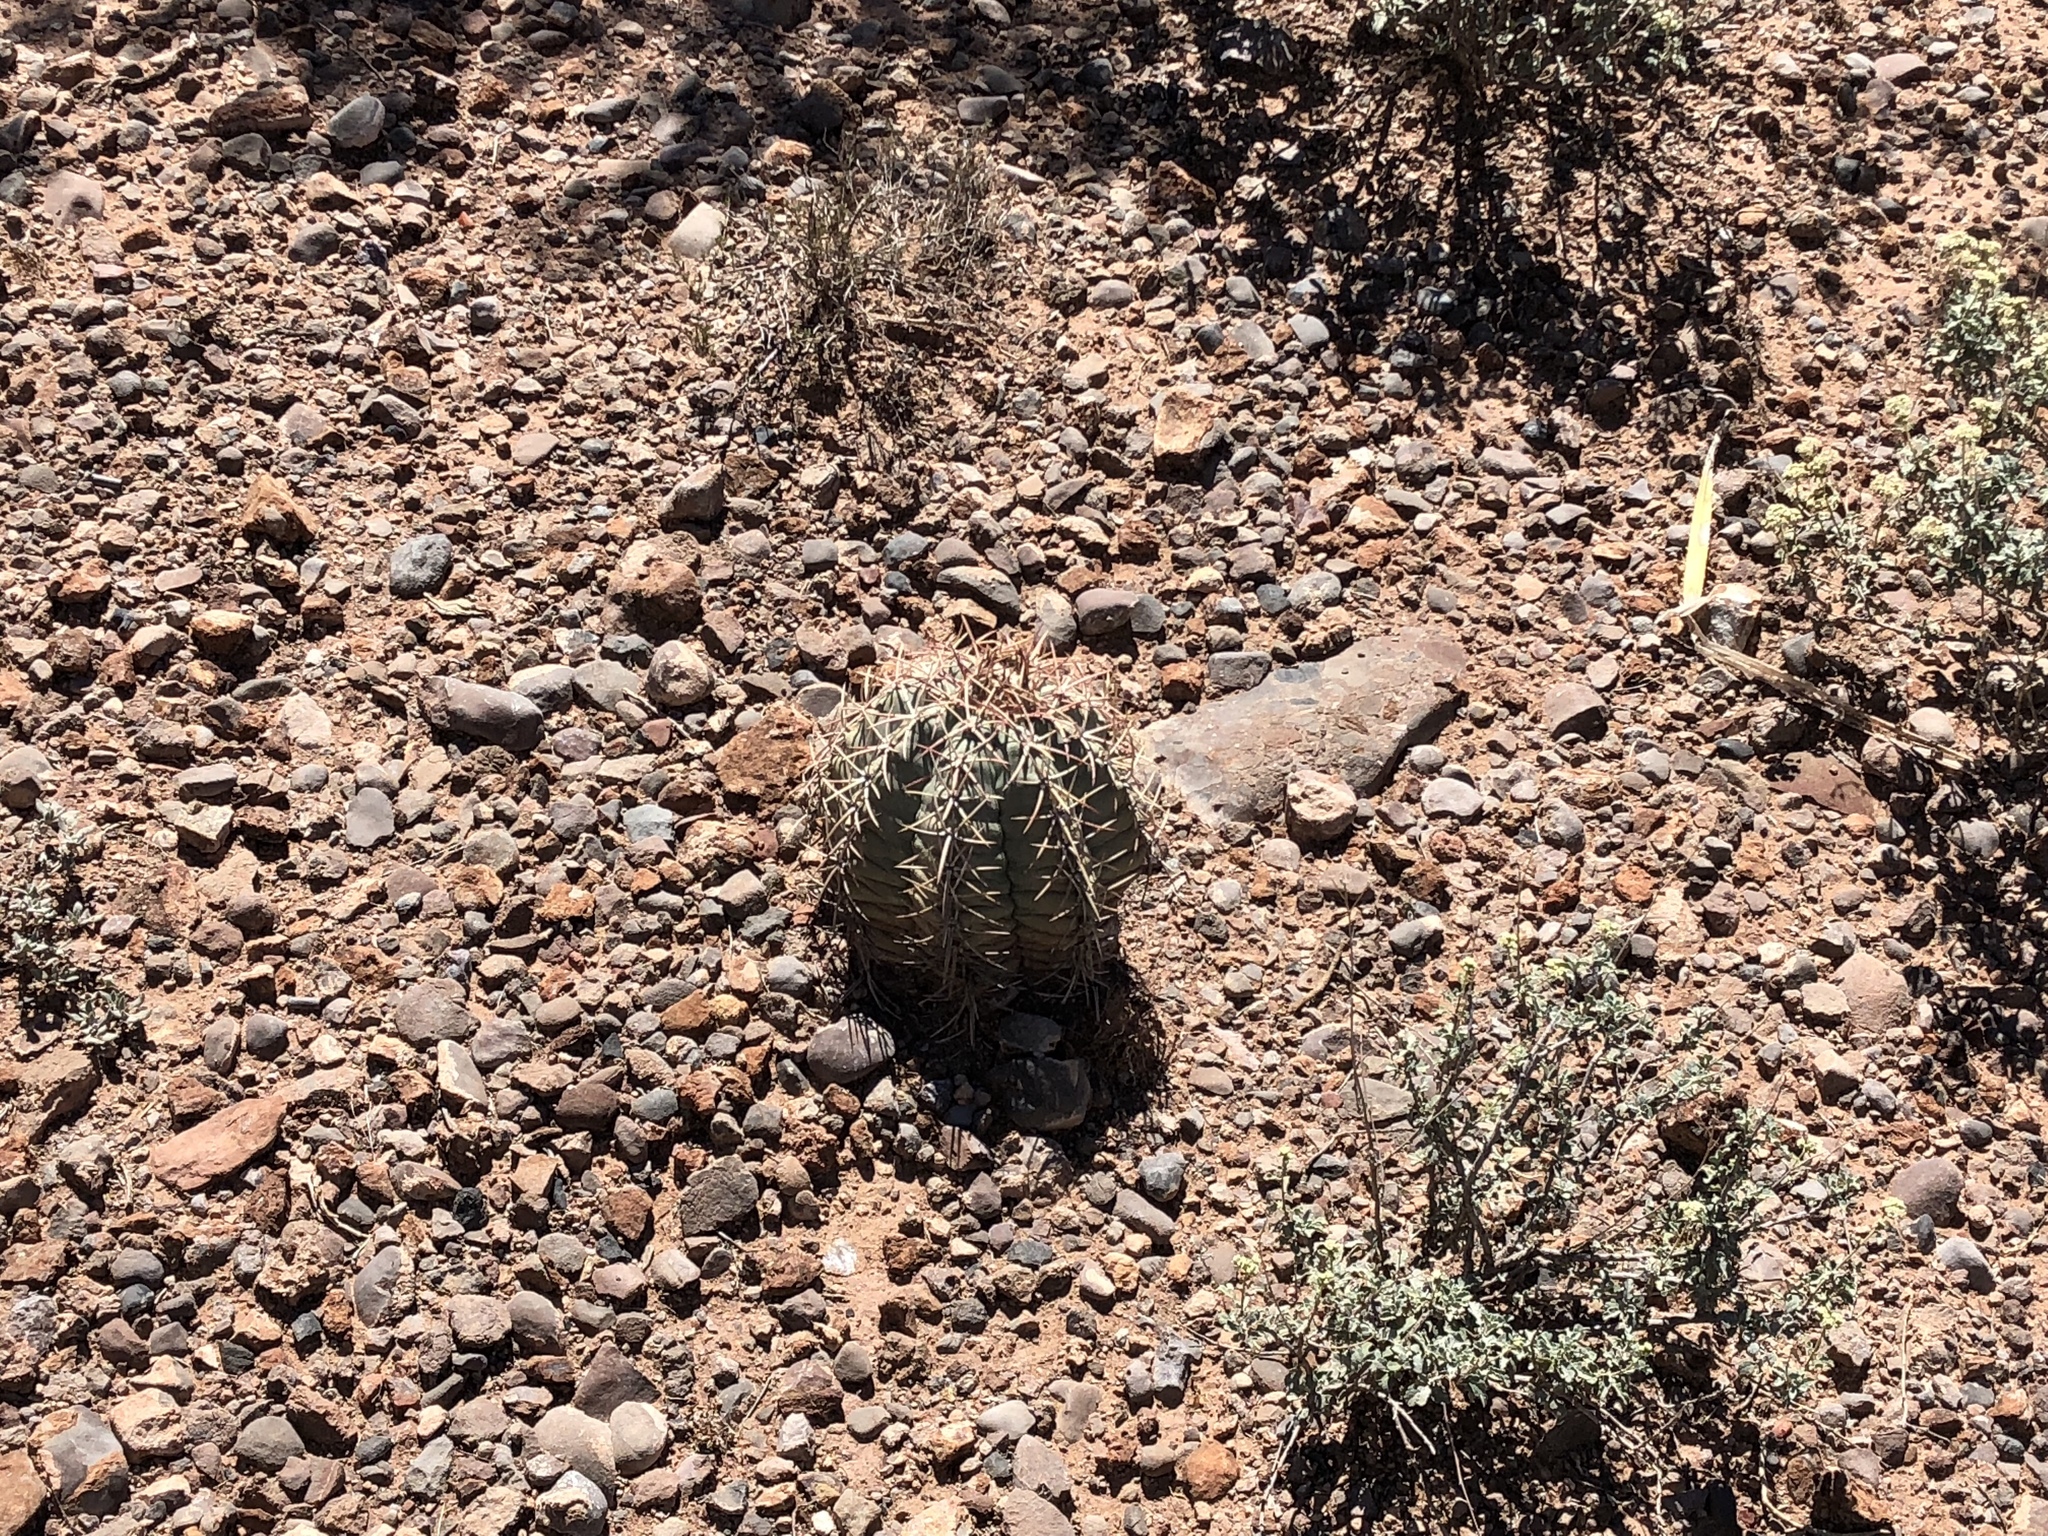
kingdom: Plantae
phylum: Tracheophyta
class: Magnoliopsida
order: Caryophyllales
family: Cactaceae
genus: Echinocactus
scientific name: Echinocactus horizonthalonius
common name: Devilshead
